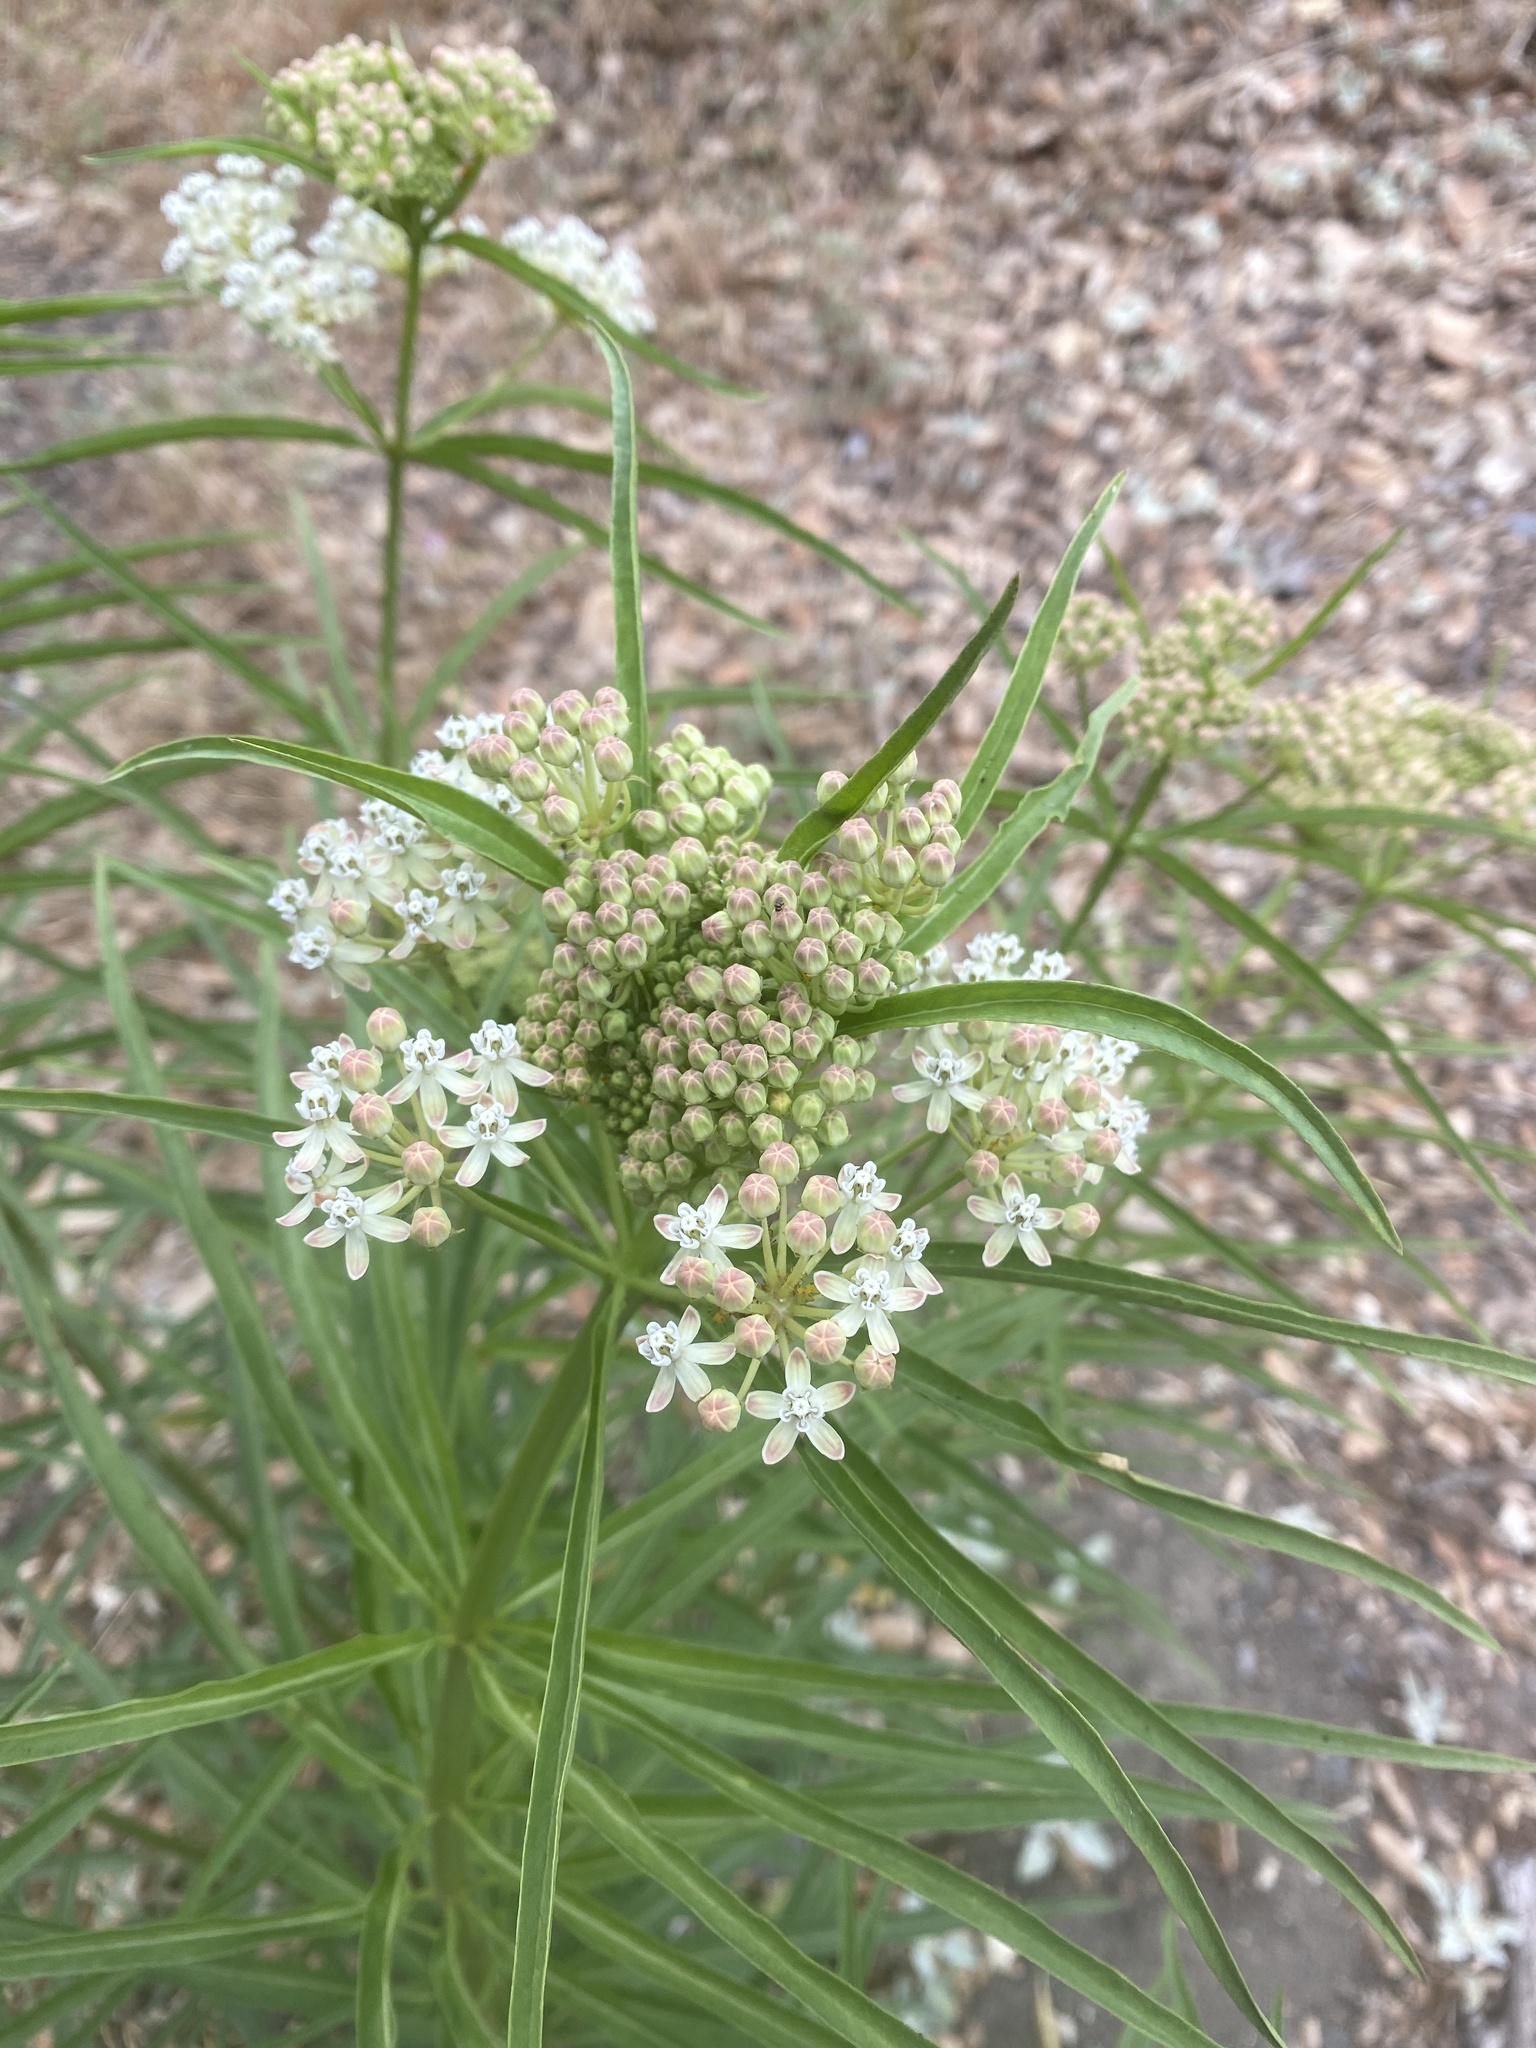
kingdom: Plantae
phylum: Tracheophyta
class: Magnoliopsida
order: Gentianales
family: Apocynaceae
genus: Asclepias
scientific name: Asclepias fascicularis
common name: Mexican milkweed
